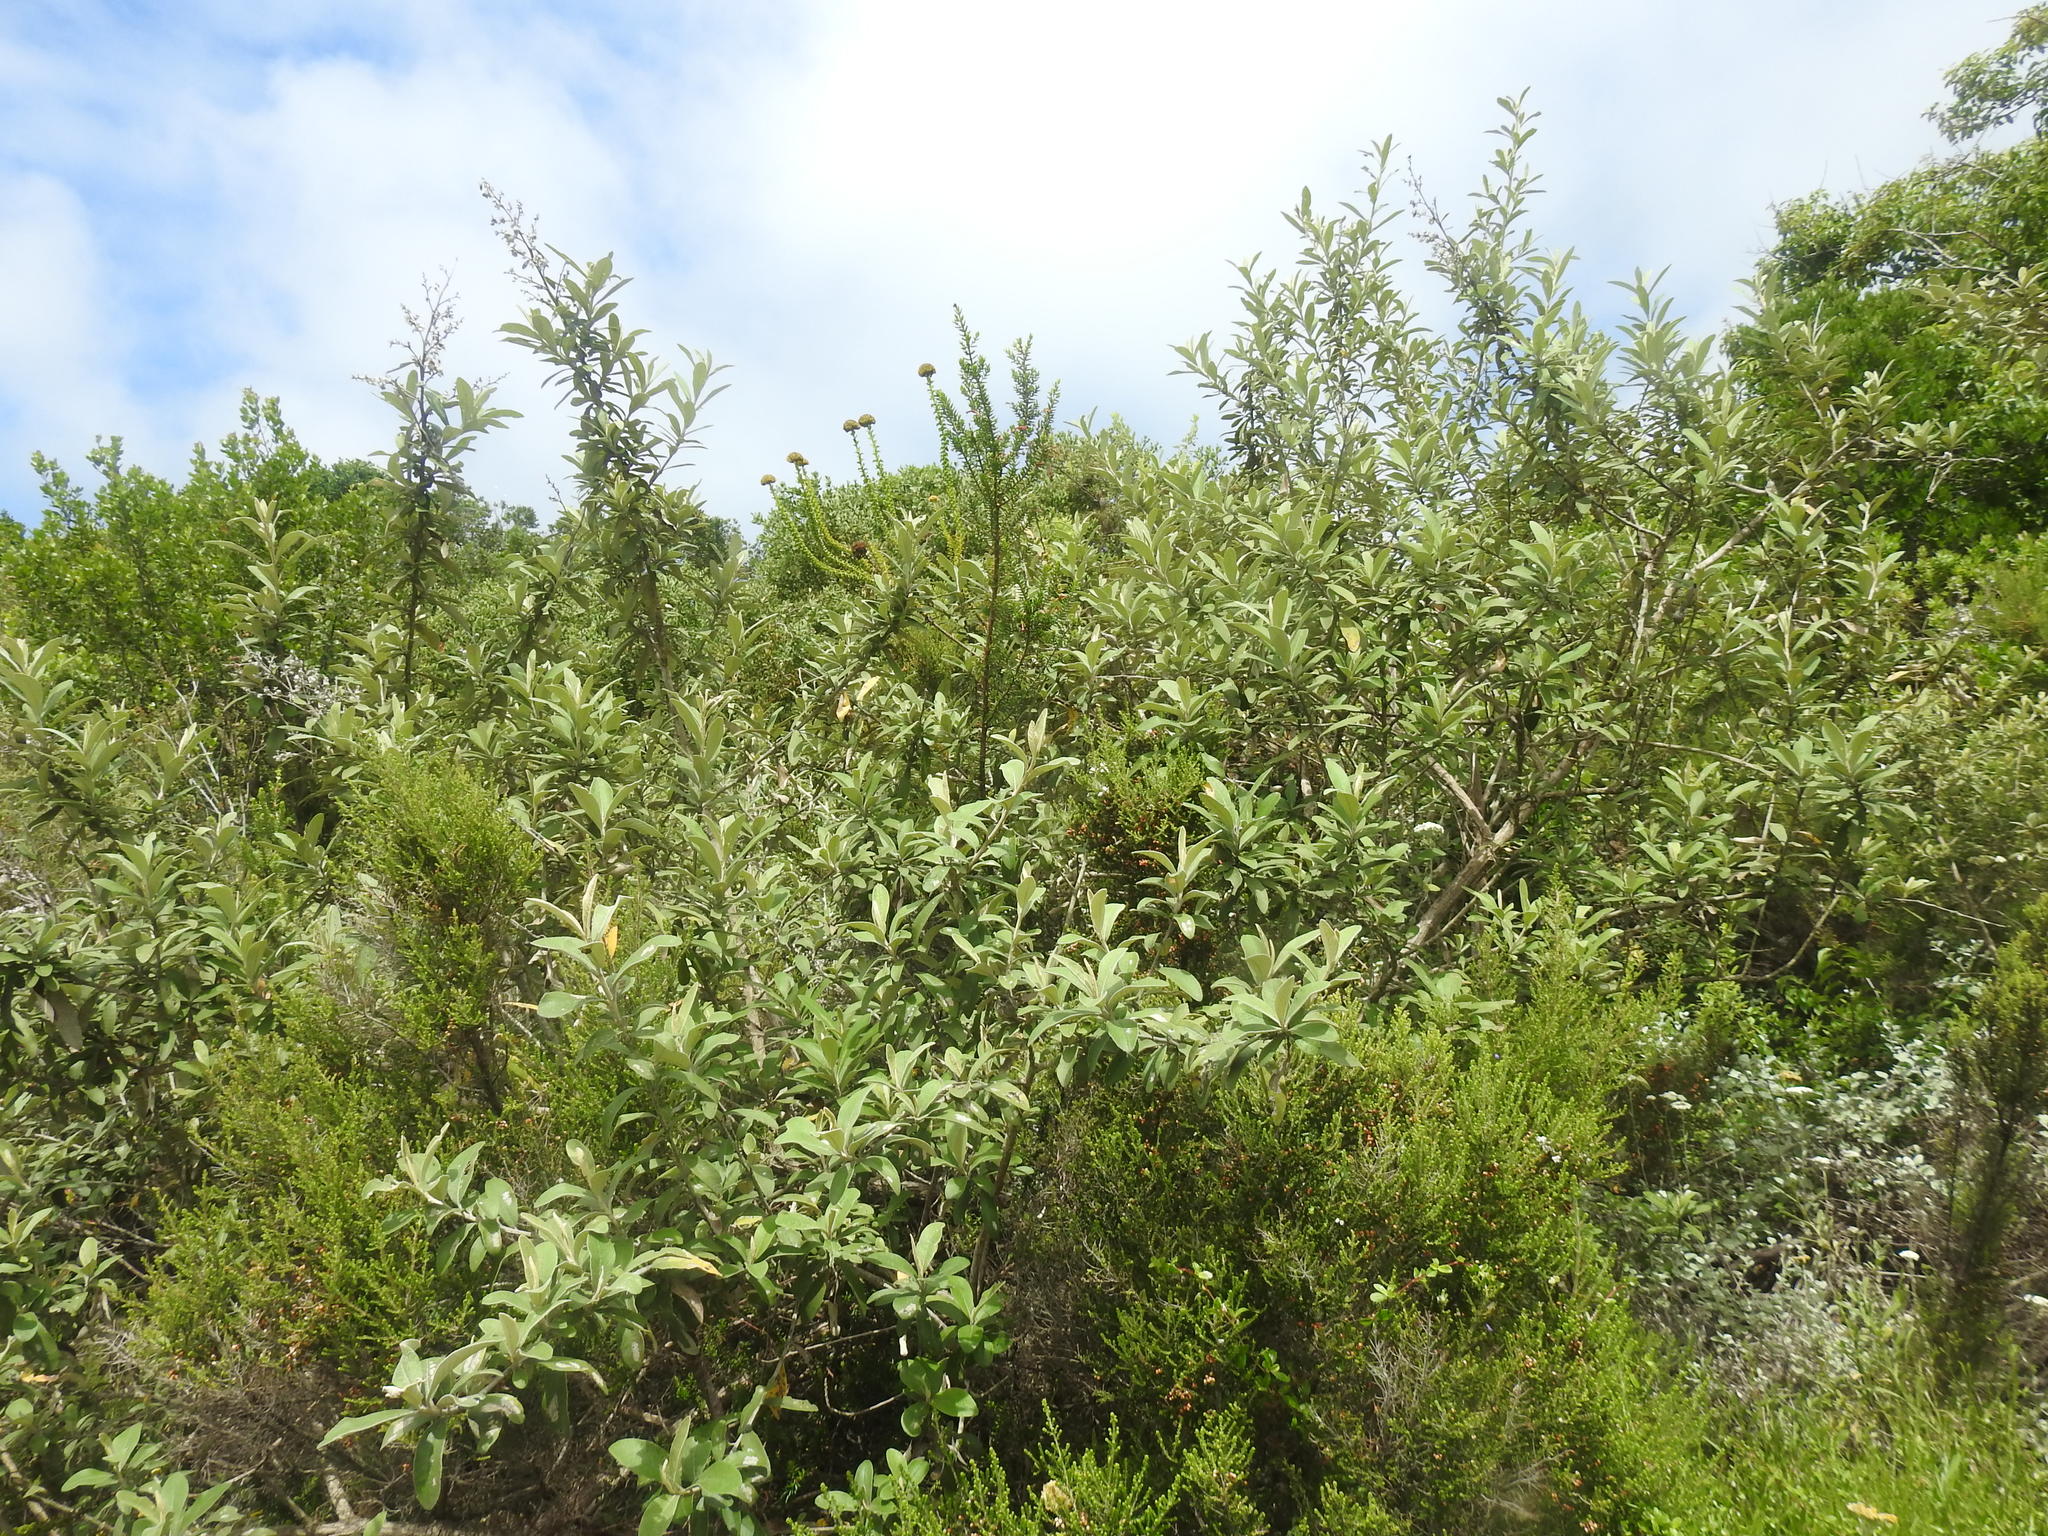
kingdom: Plantae
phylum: Tracheophyta
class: Magnoliopsida
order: Asterales
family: Asteraceae
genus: Tarchonanthus
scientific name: Tarchonanthus littoralis
